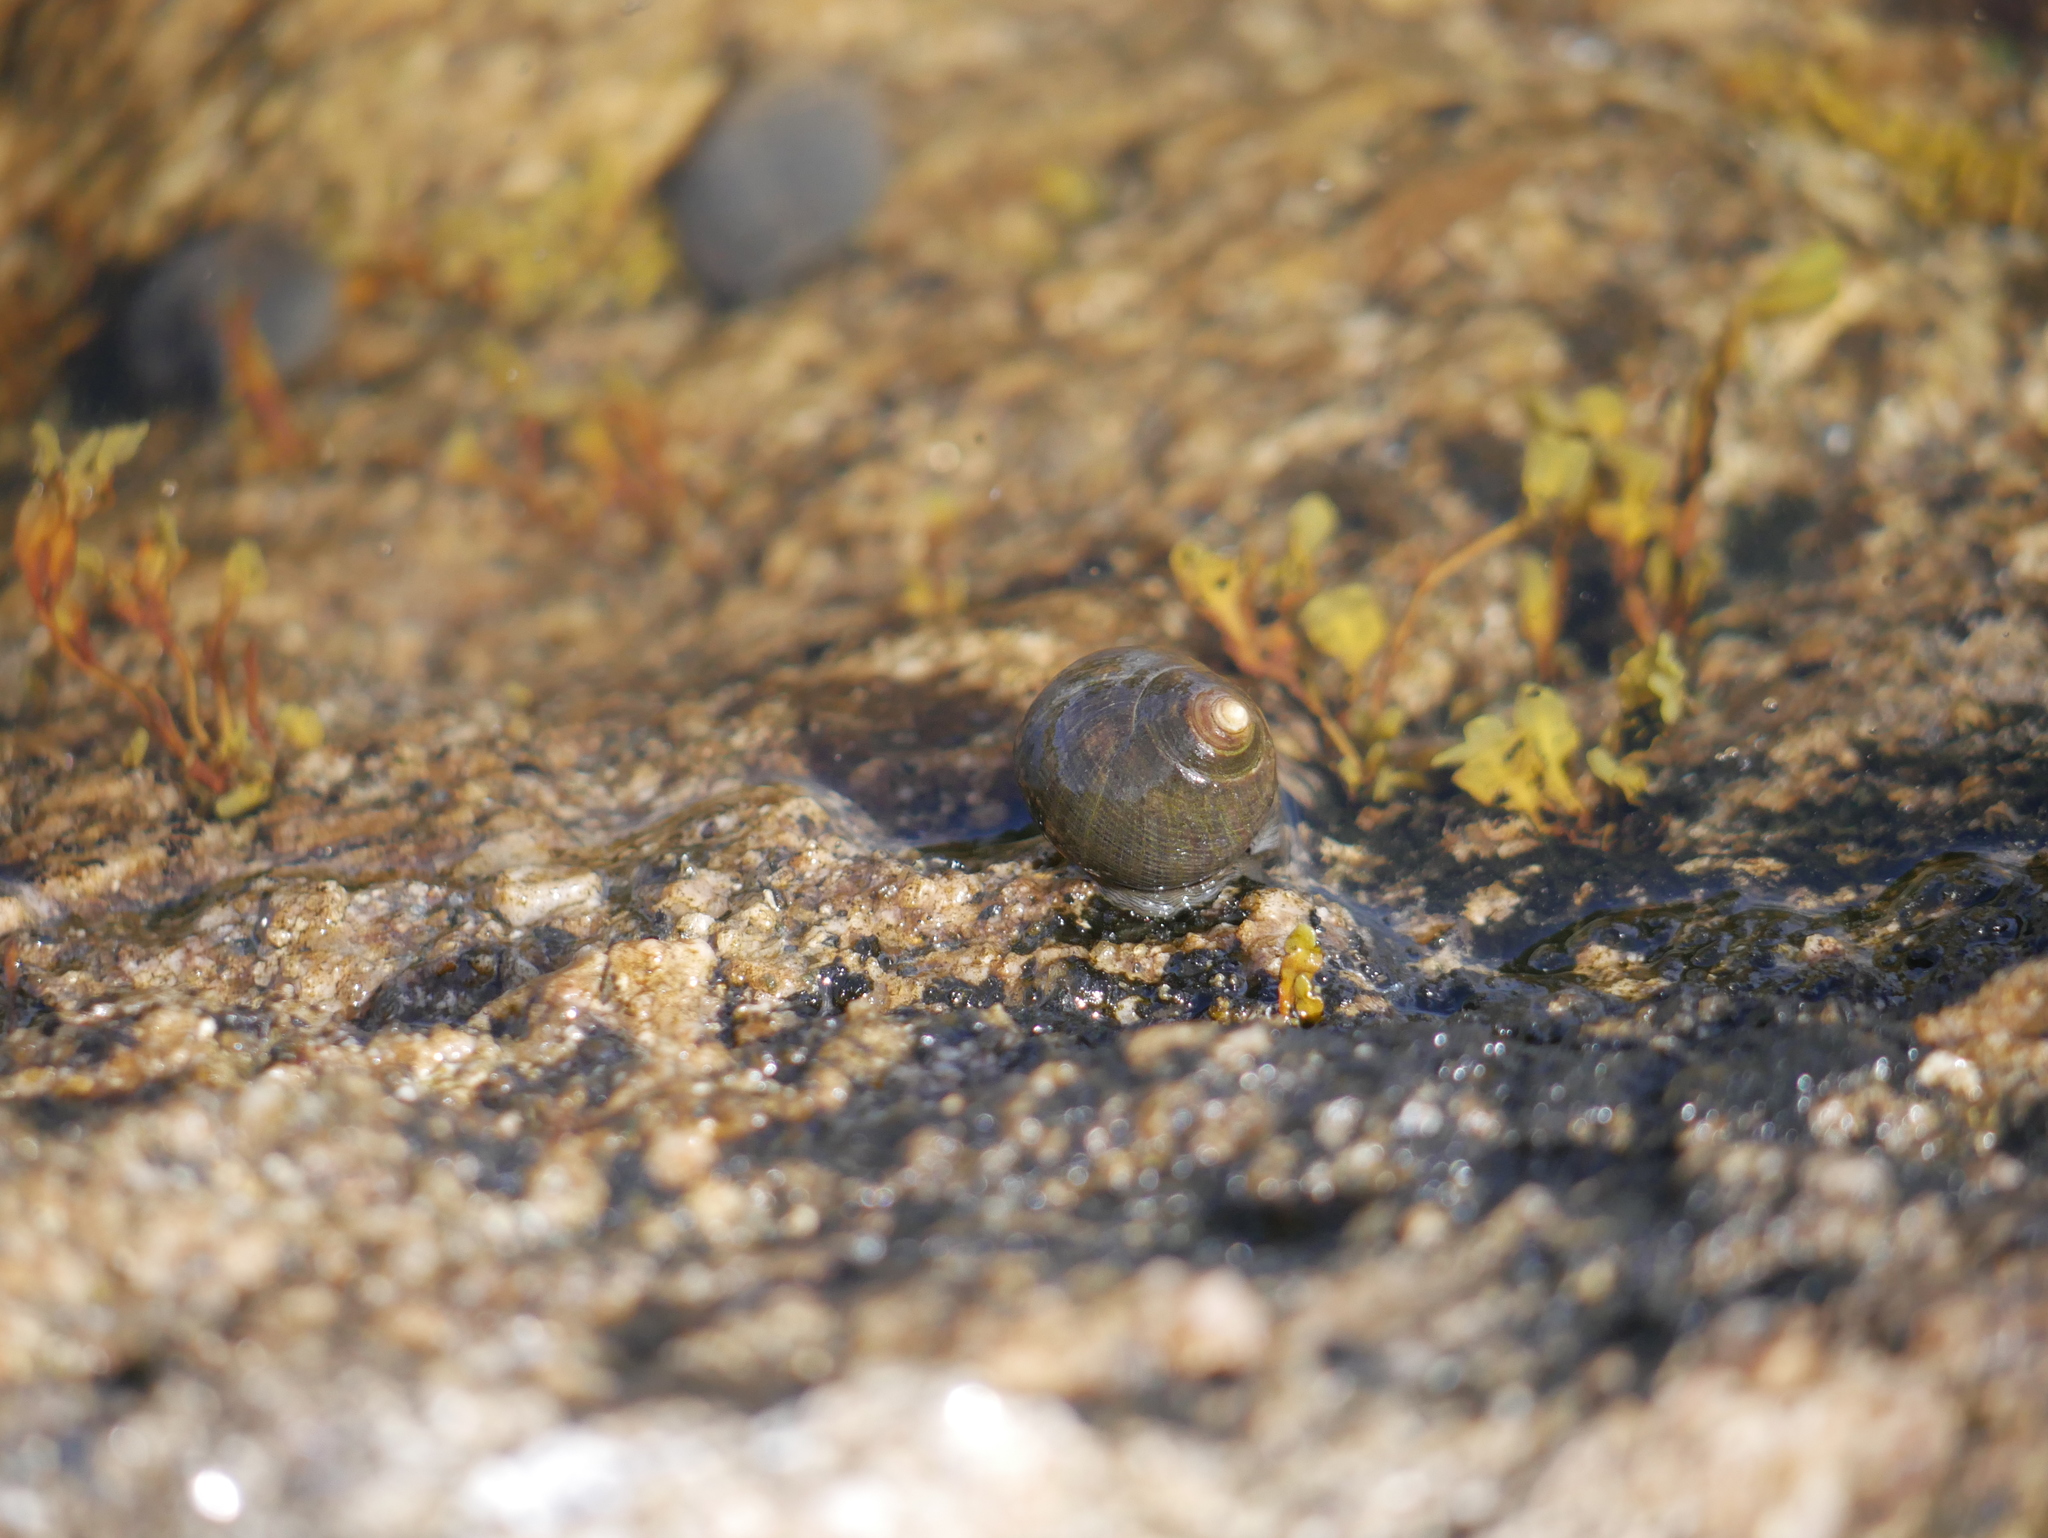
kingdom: Animalia
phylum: Mollusca
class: Gastropoda
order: Littorinimorpha
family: Littorinidae
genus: Littorina
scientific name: Littorina littorea
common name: Common periwinkle
